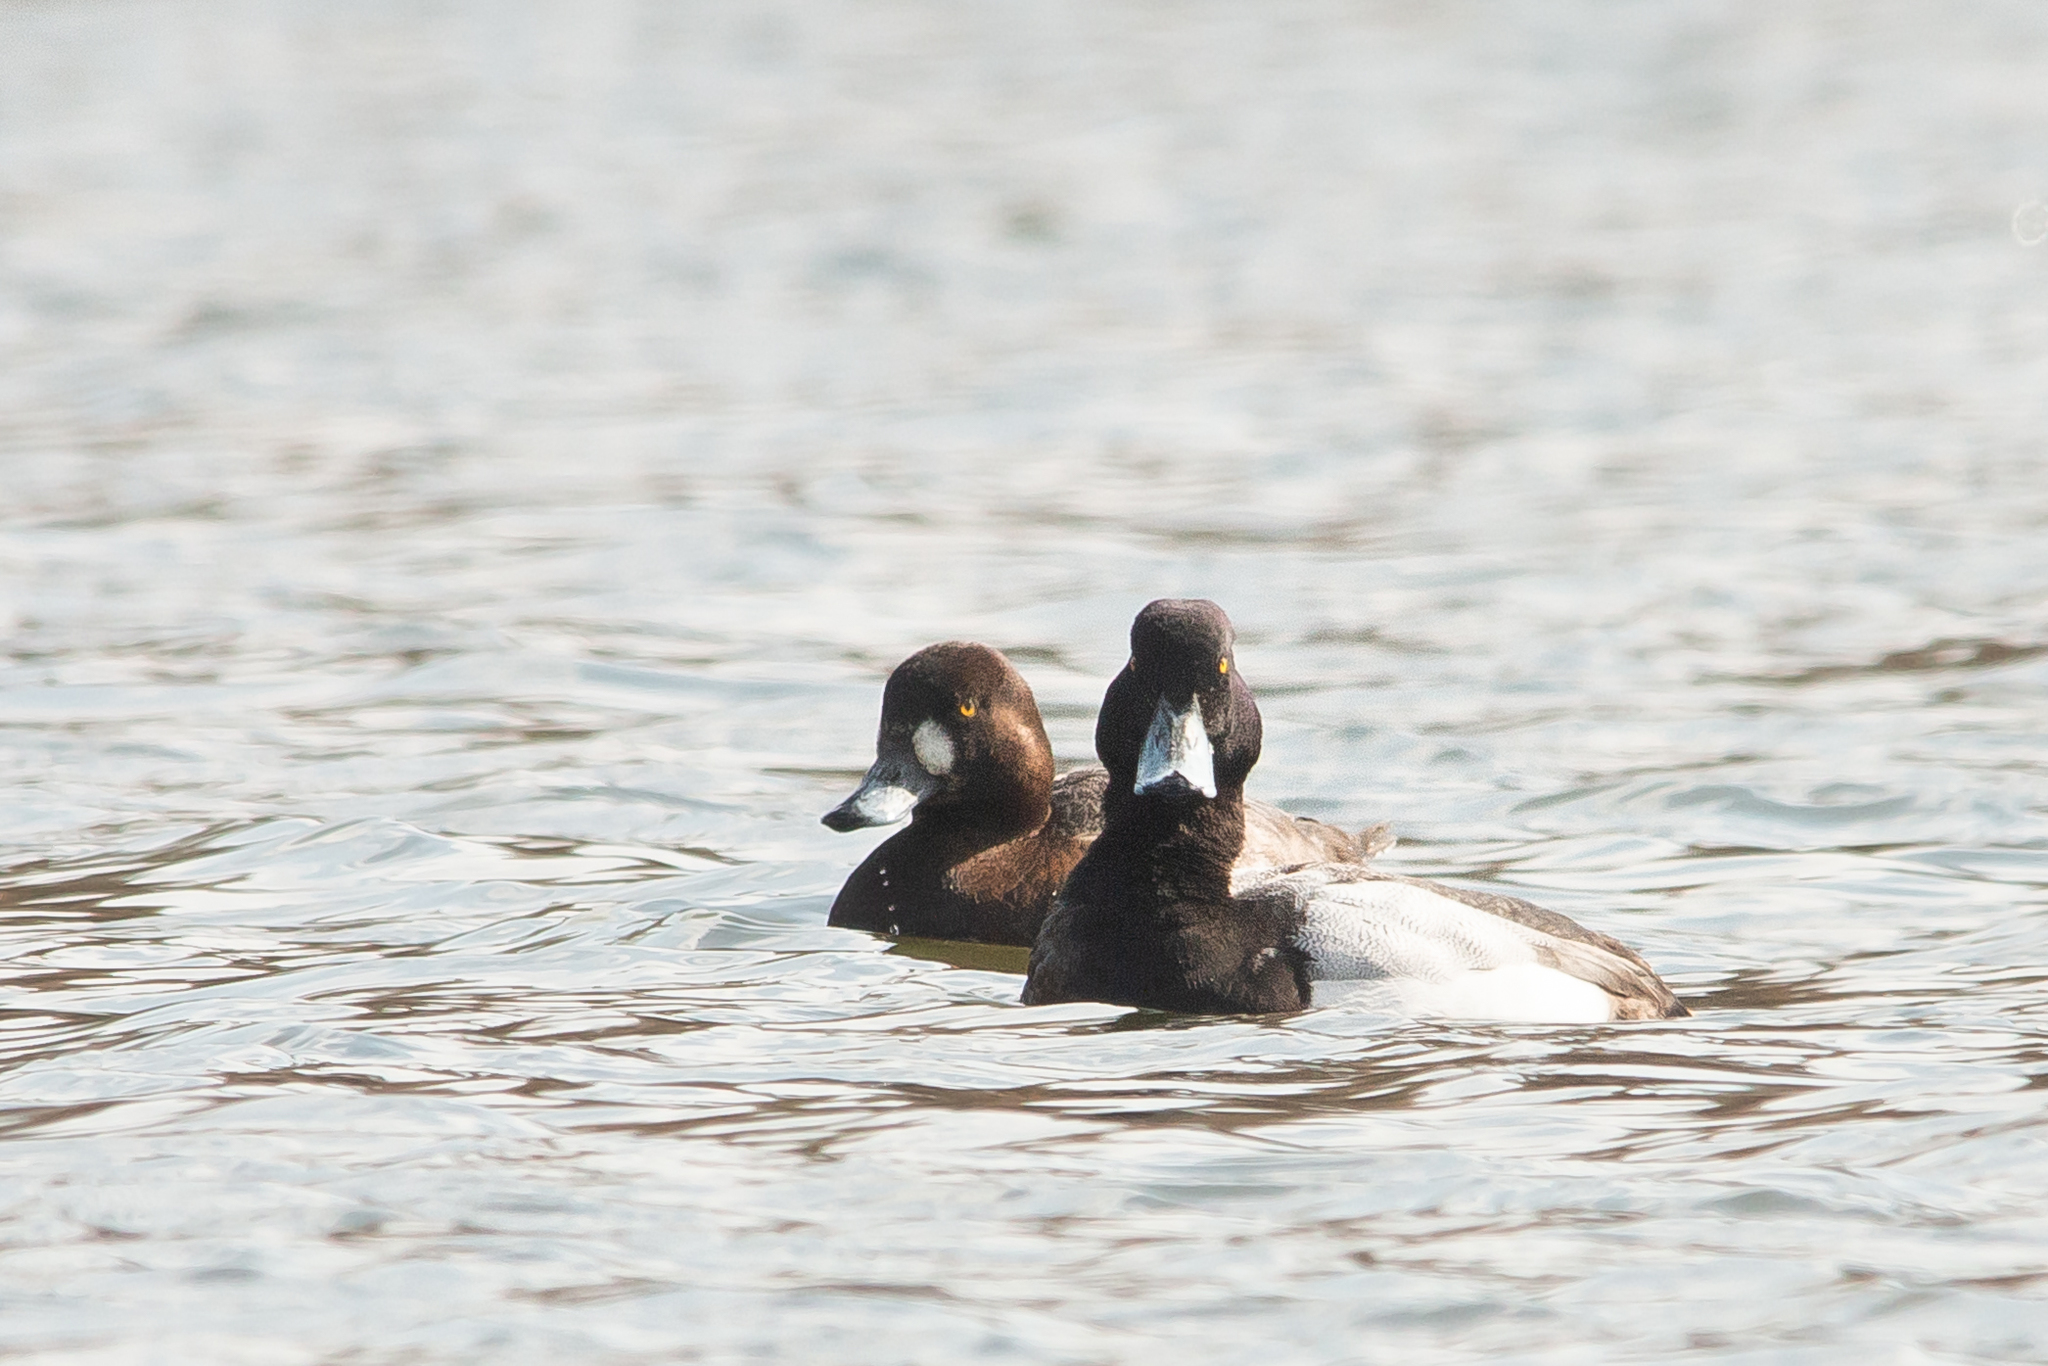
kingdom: Animalia
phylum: Chordata
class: Aves
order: Anseriformes
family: Anatidae
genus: Aythya
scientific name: Aythya marila
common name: Greater scaup
